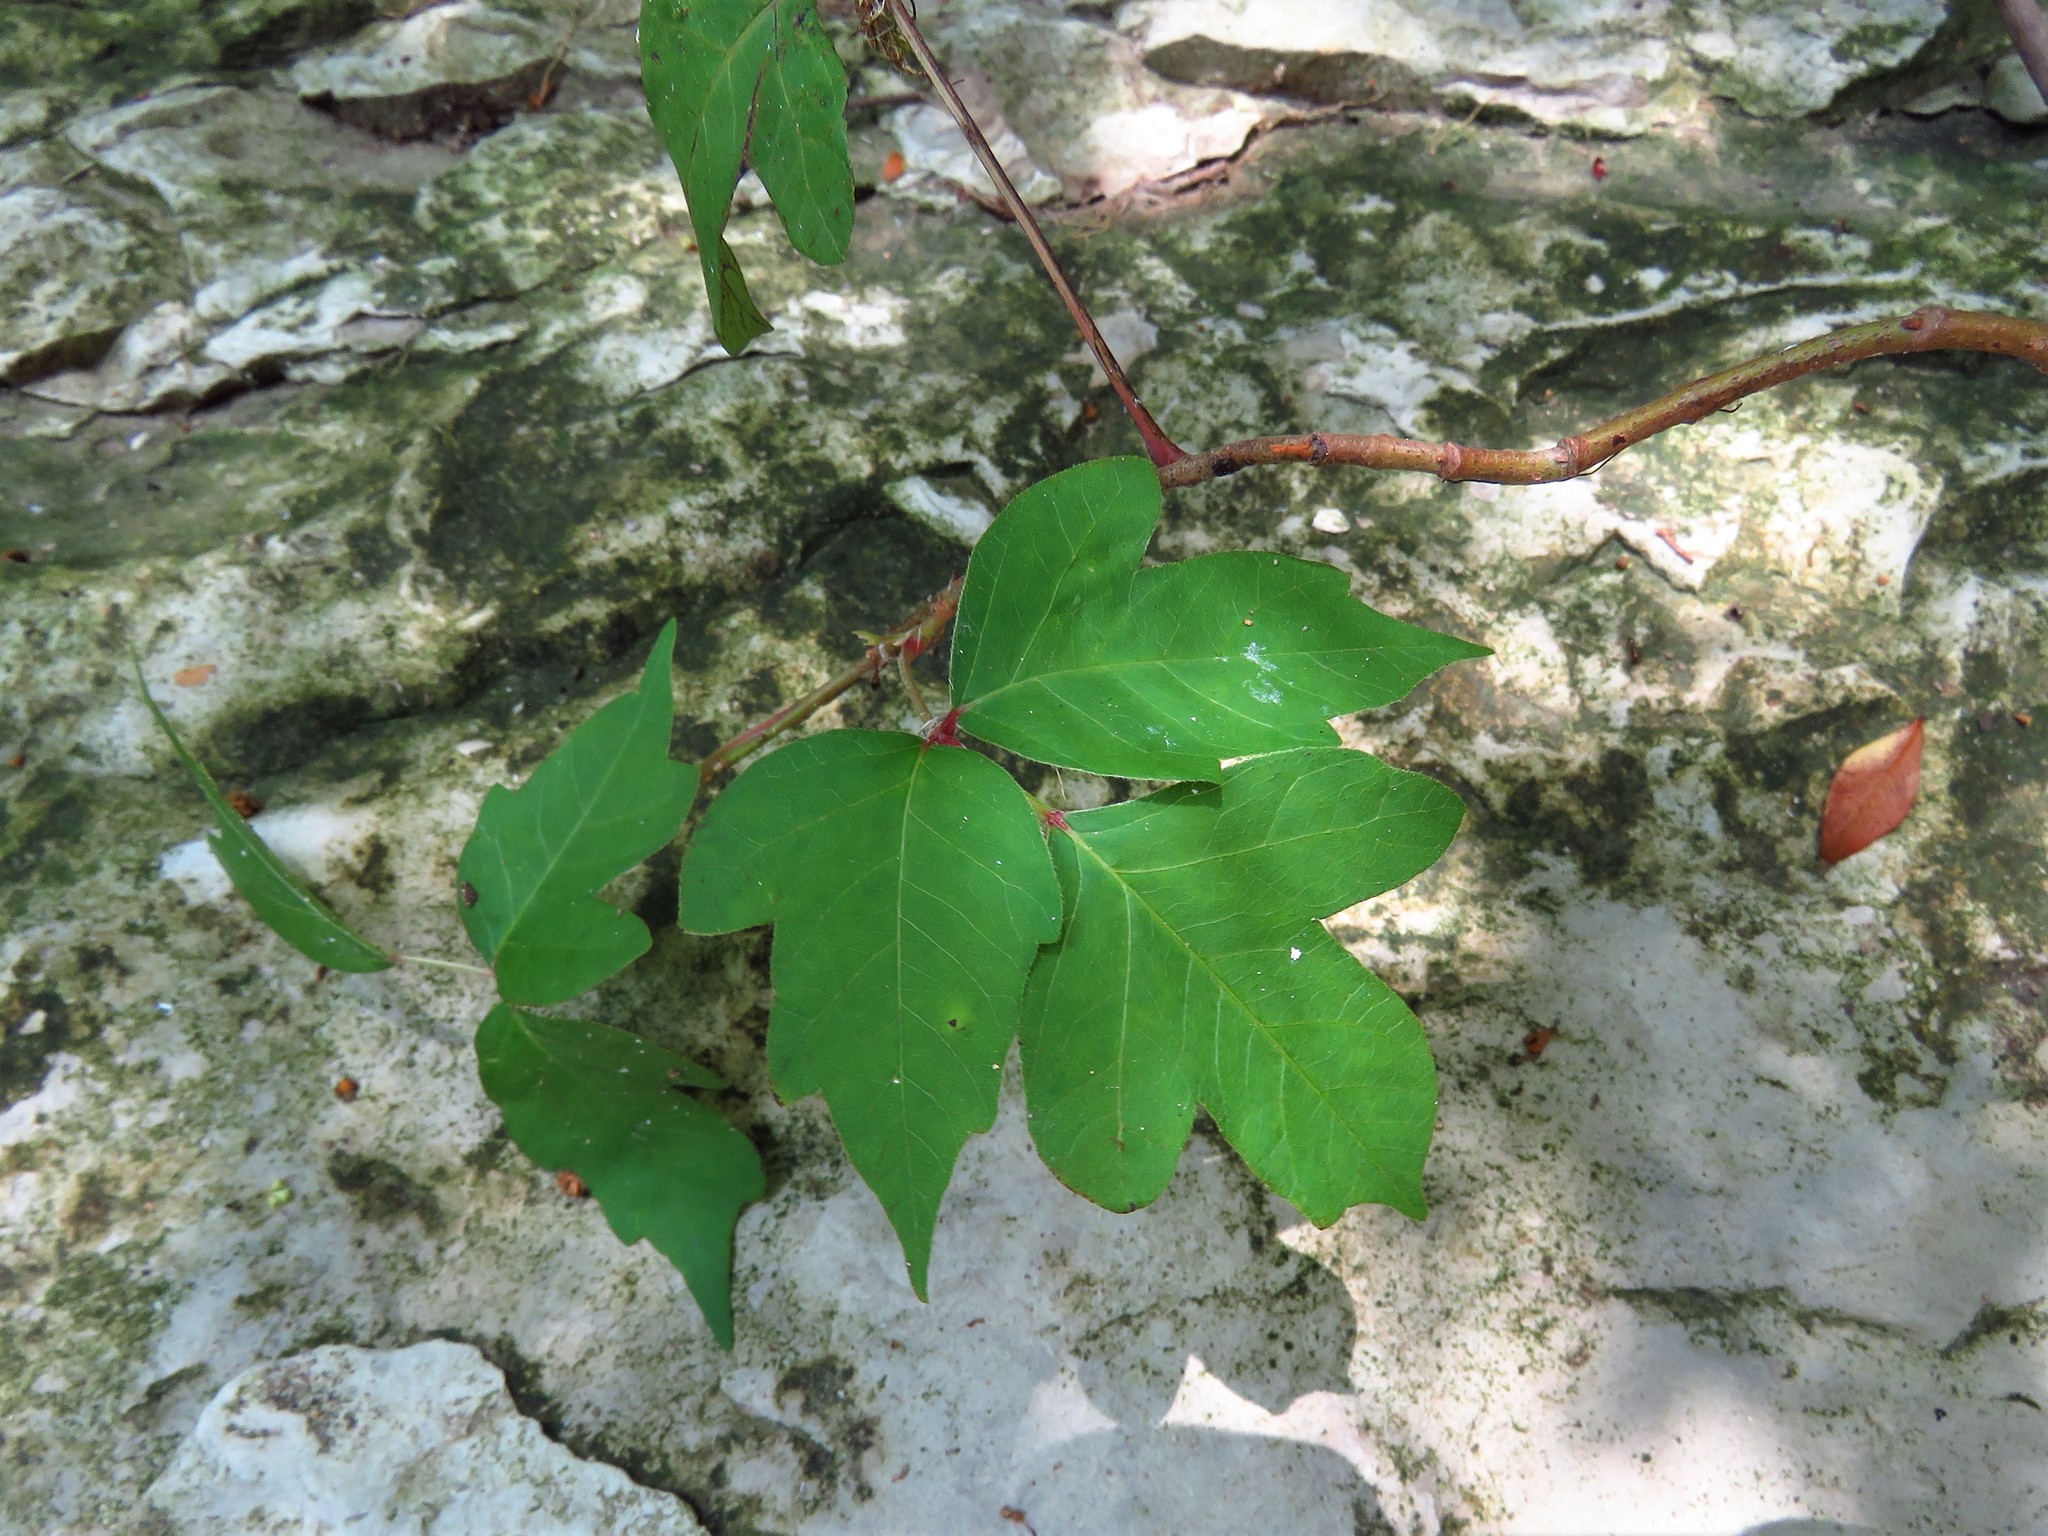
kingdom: Plantae
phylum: Tracheophyta
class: Magnoliopsida
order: Sapindales
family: Anacardiaceae
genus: Toxicodendron
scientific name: Toxicodendron radicans
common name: Poison ivy
